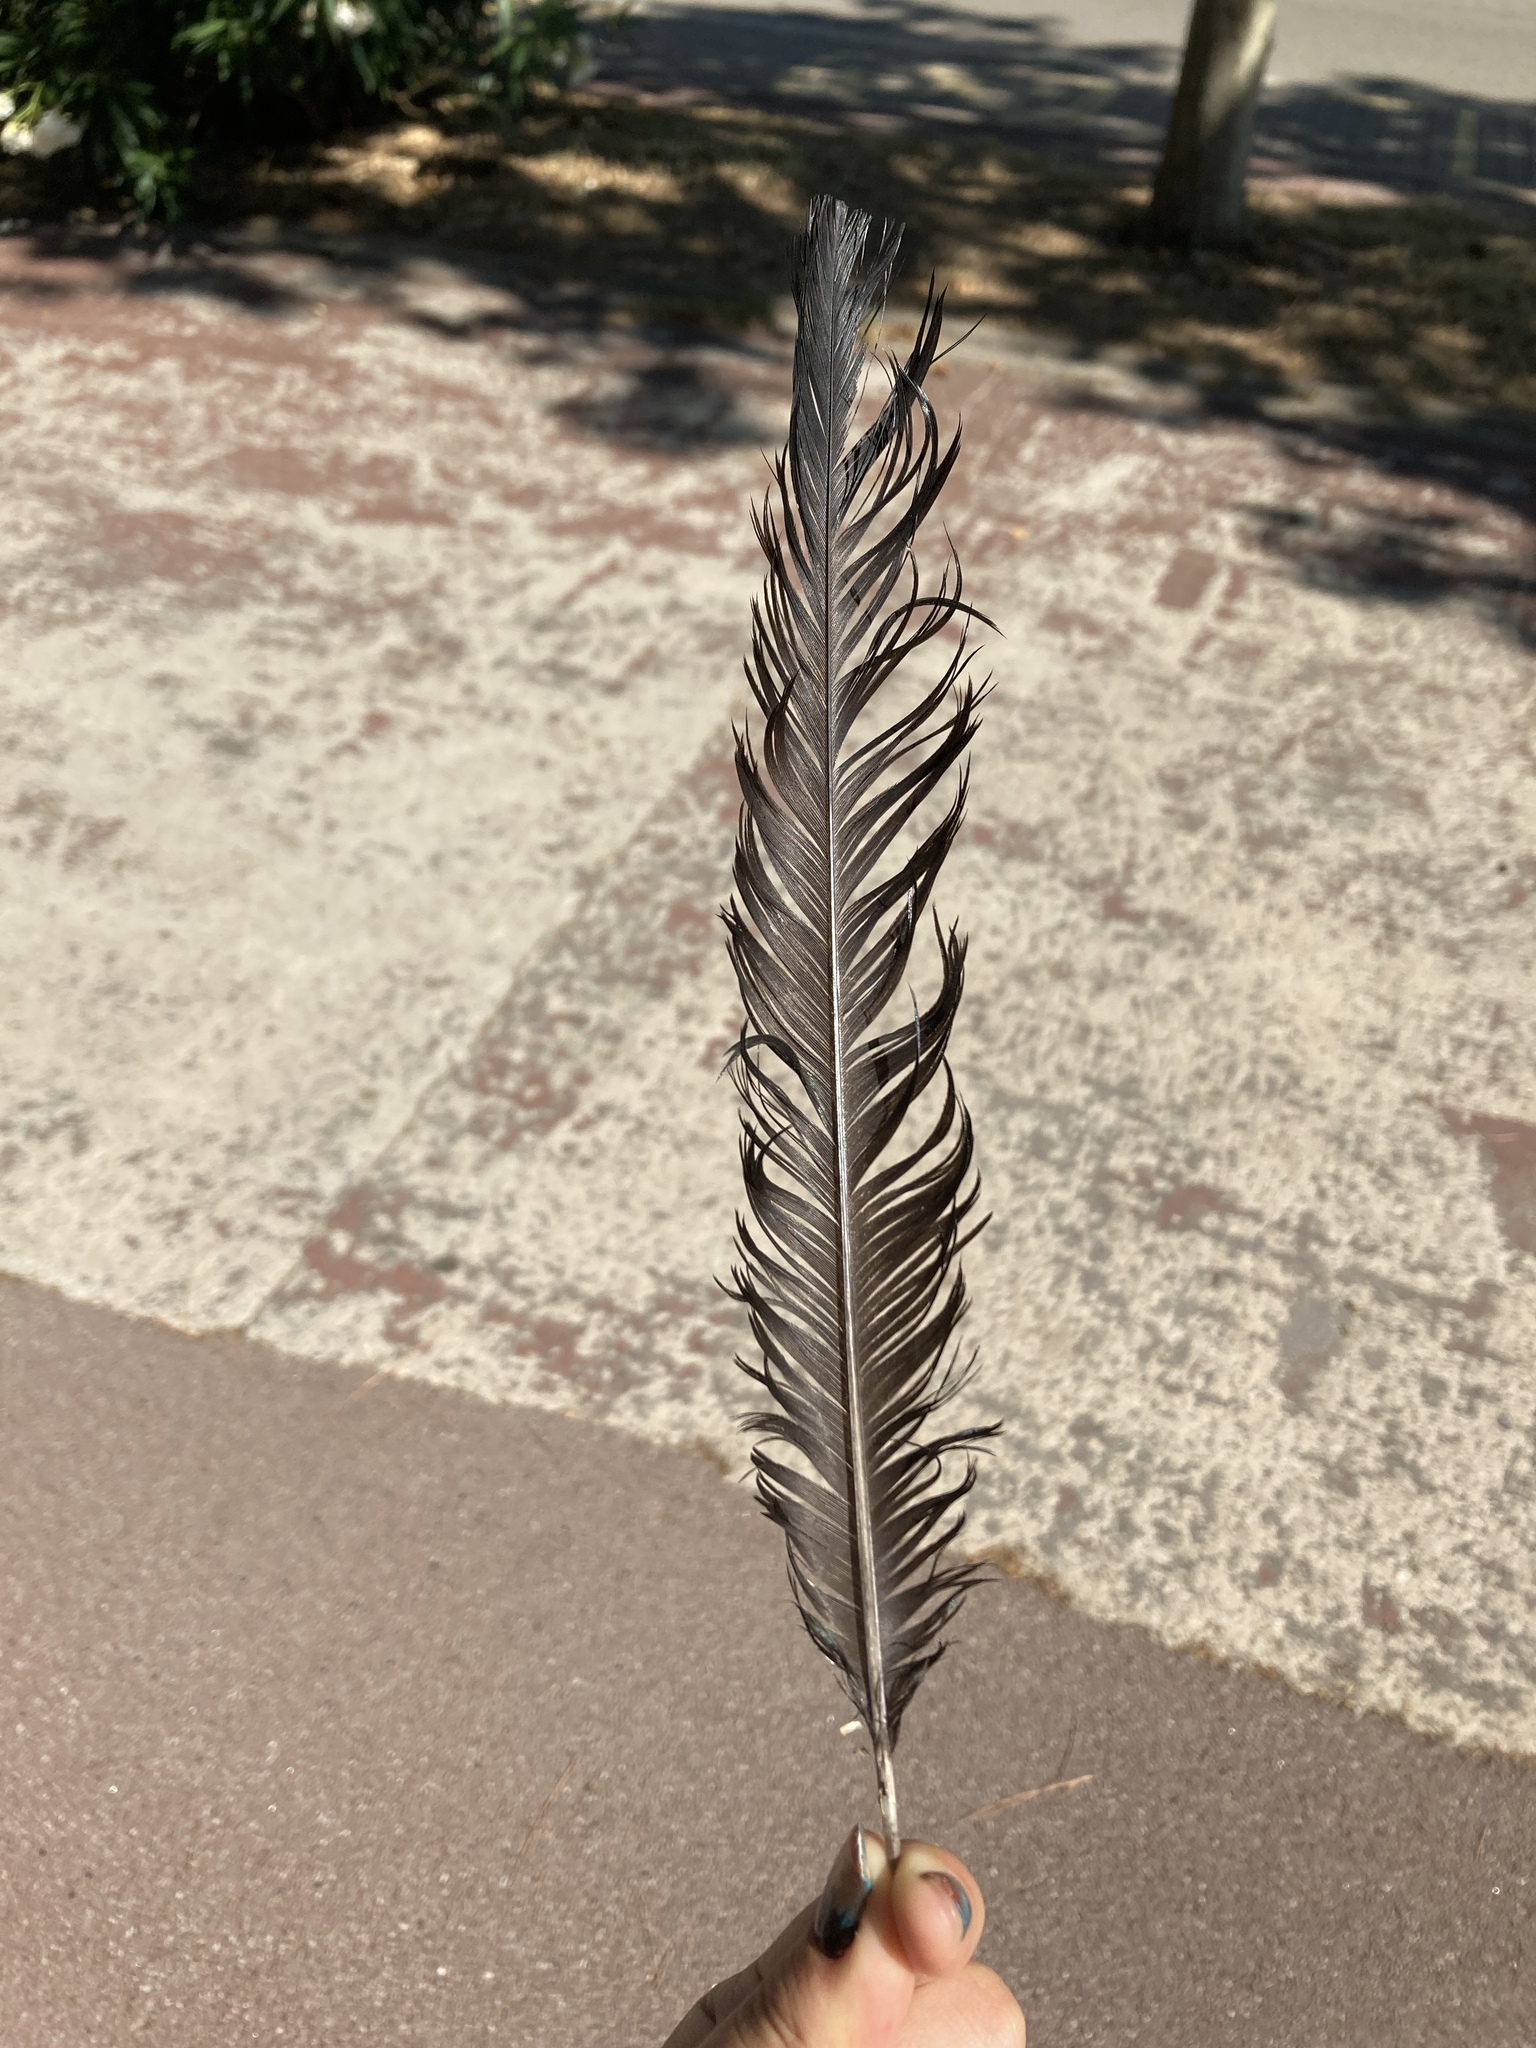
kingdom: Animalia
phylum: Chordata
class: Aves
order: Passeriformes
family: Corvidae
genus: Pica
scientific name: Pica pica
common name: Eurasian magpie
